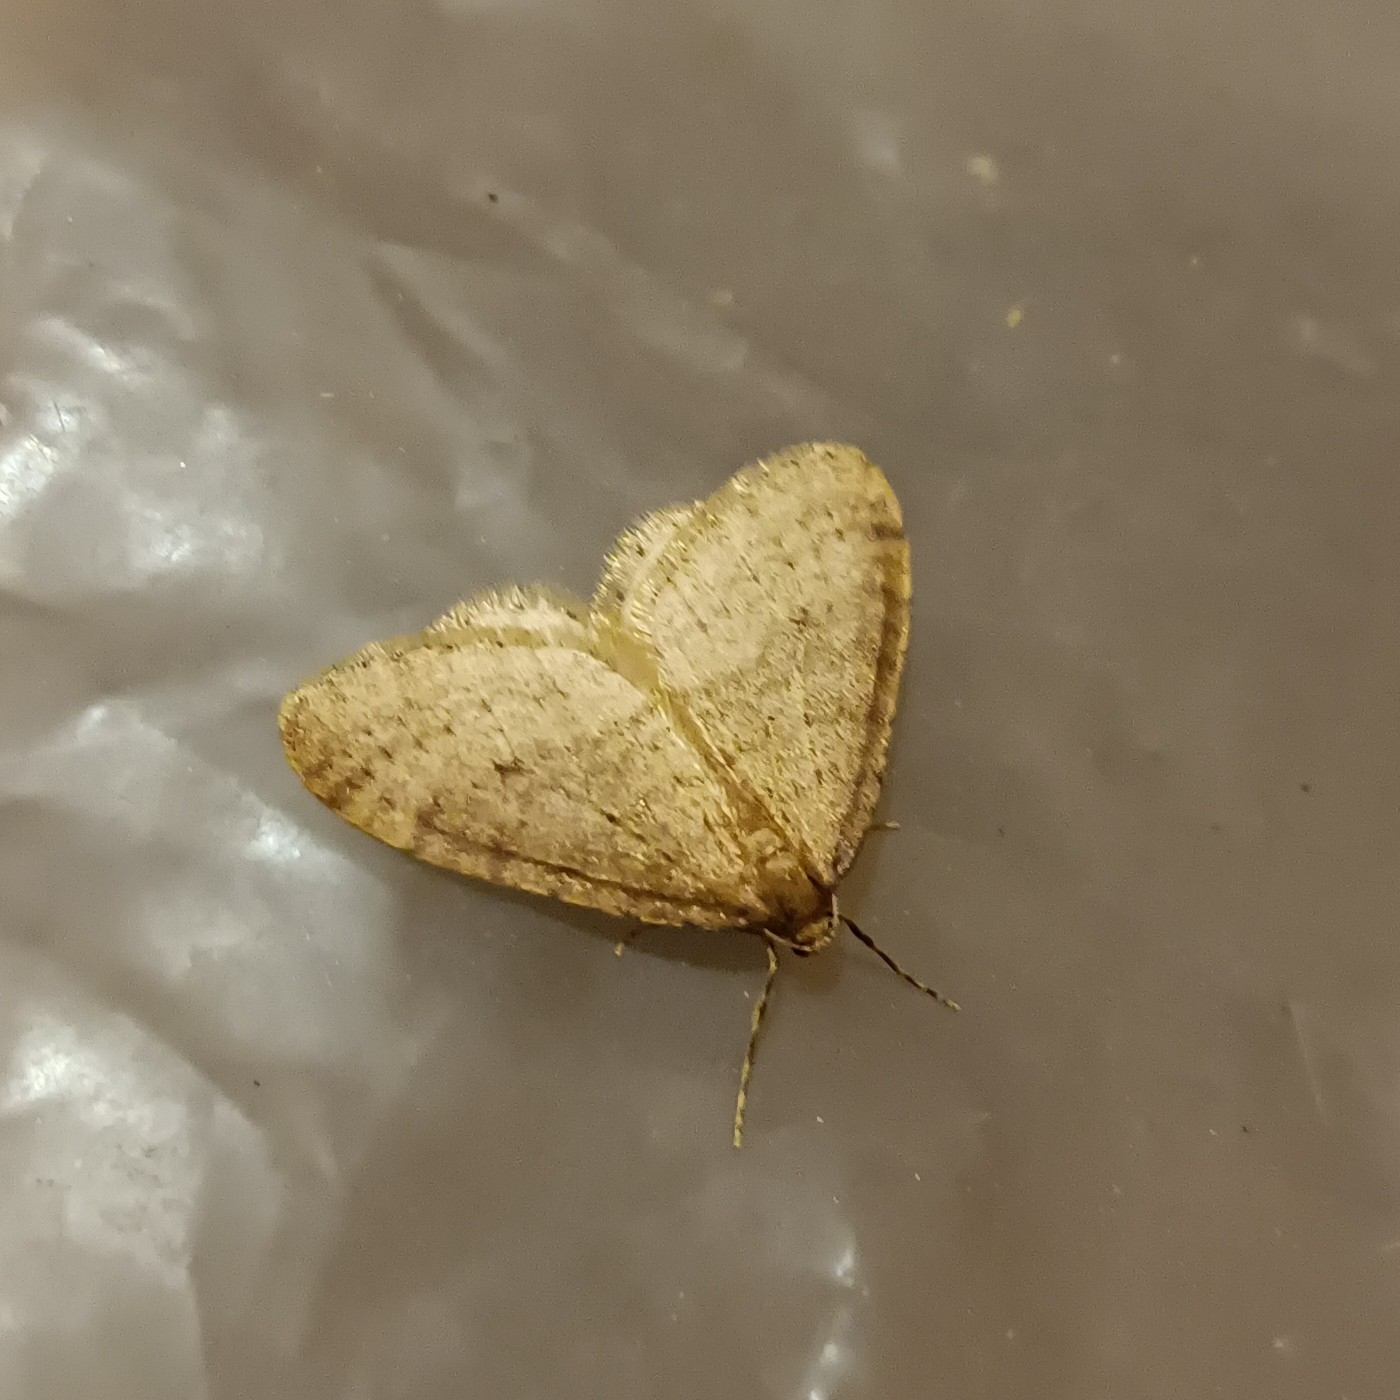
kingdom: Animalia
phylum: Arthropoda
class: Insecta
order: Lepidoptera
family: Geometridae
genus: Operophtera
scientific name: Operophtera brumata
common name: Winter moth
